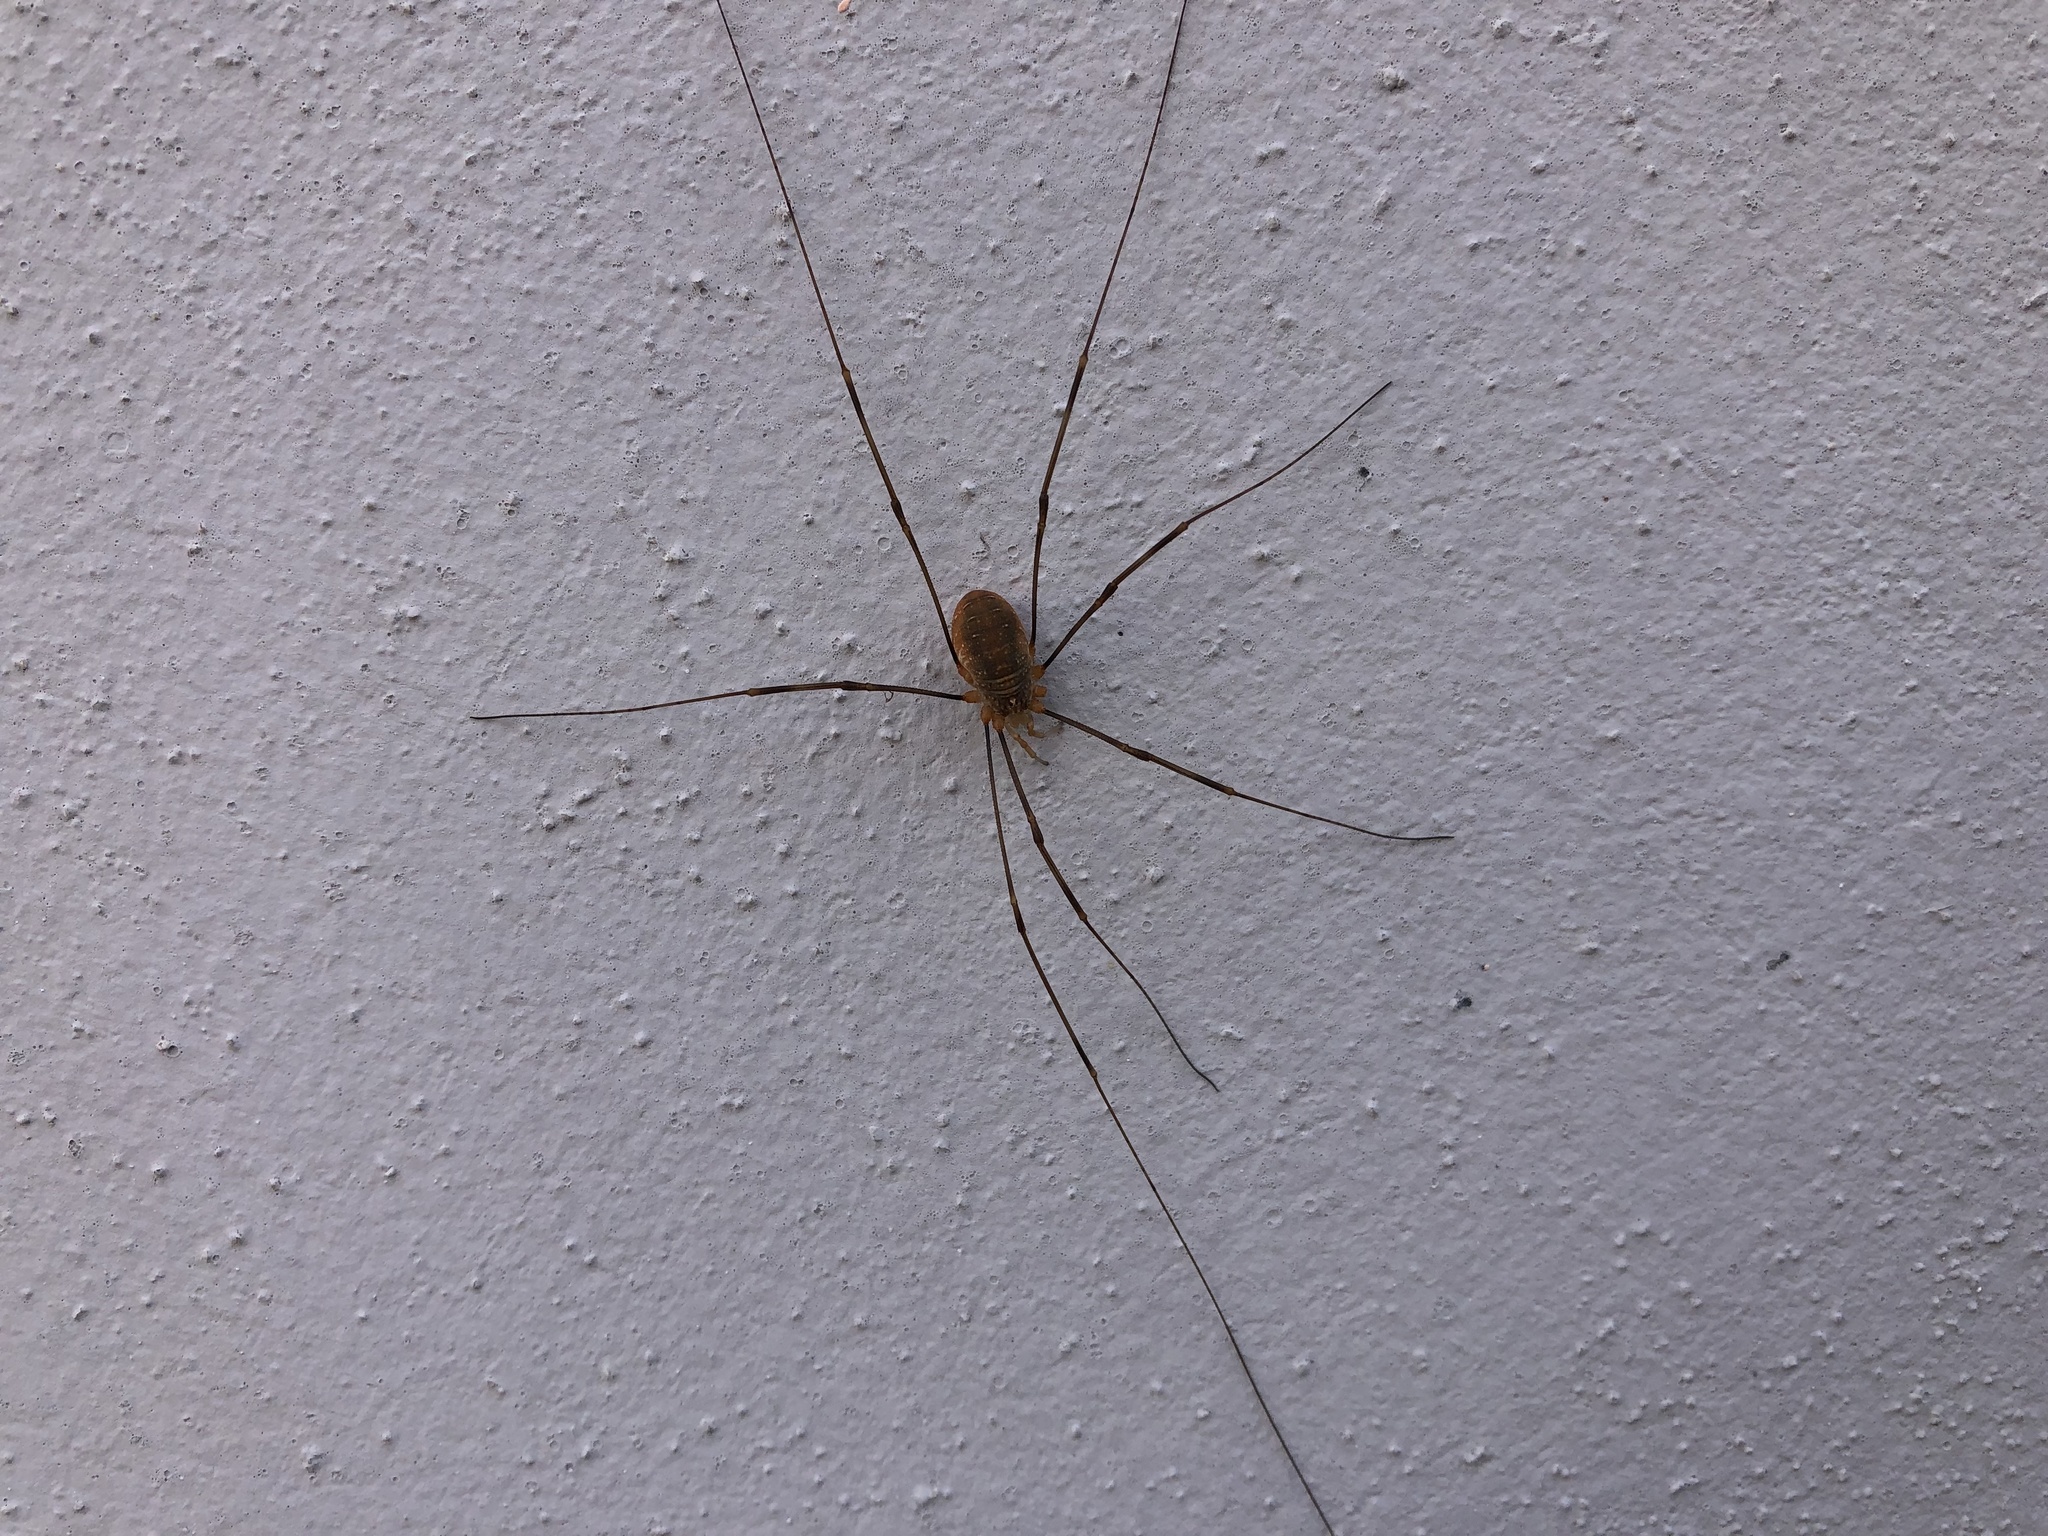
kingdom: Animalia
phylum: Arthropoda
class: Arachnida
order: Opiliones
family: Phalangiidae
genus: Opilio
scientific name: Opilio canestrinii
